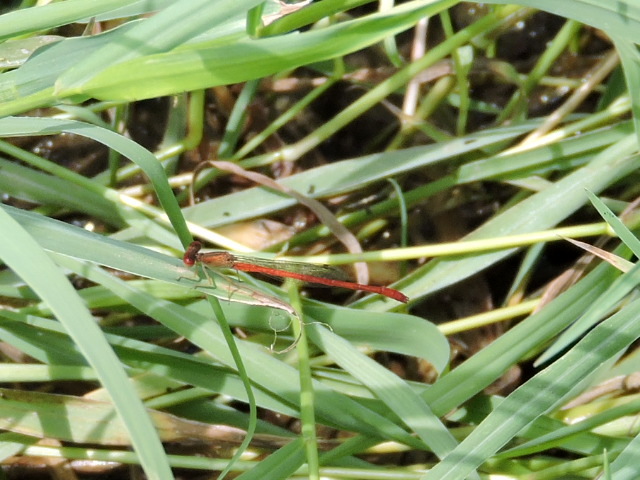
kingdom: Animalia
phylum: Arthropoda
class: Insecta
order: Odonata
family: Coenagrionidae
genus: Telebasis
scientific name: Telebasis salva
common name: Desert firetail
